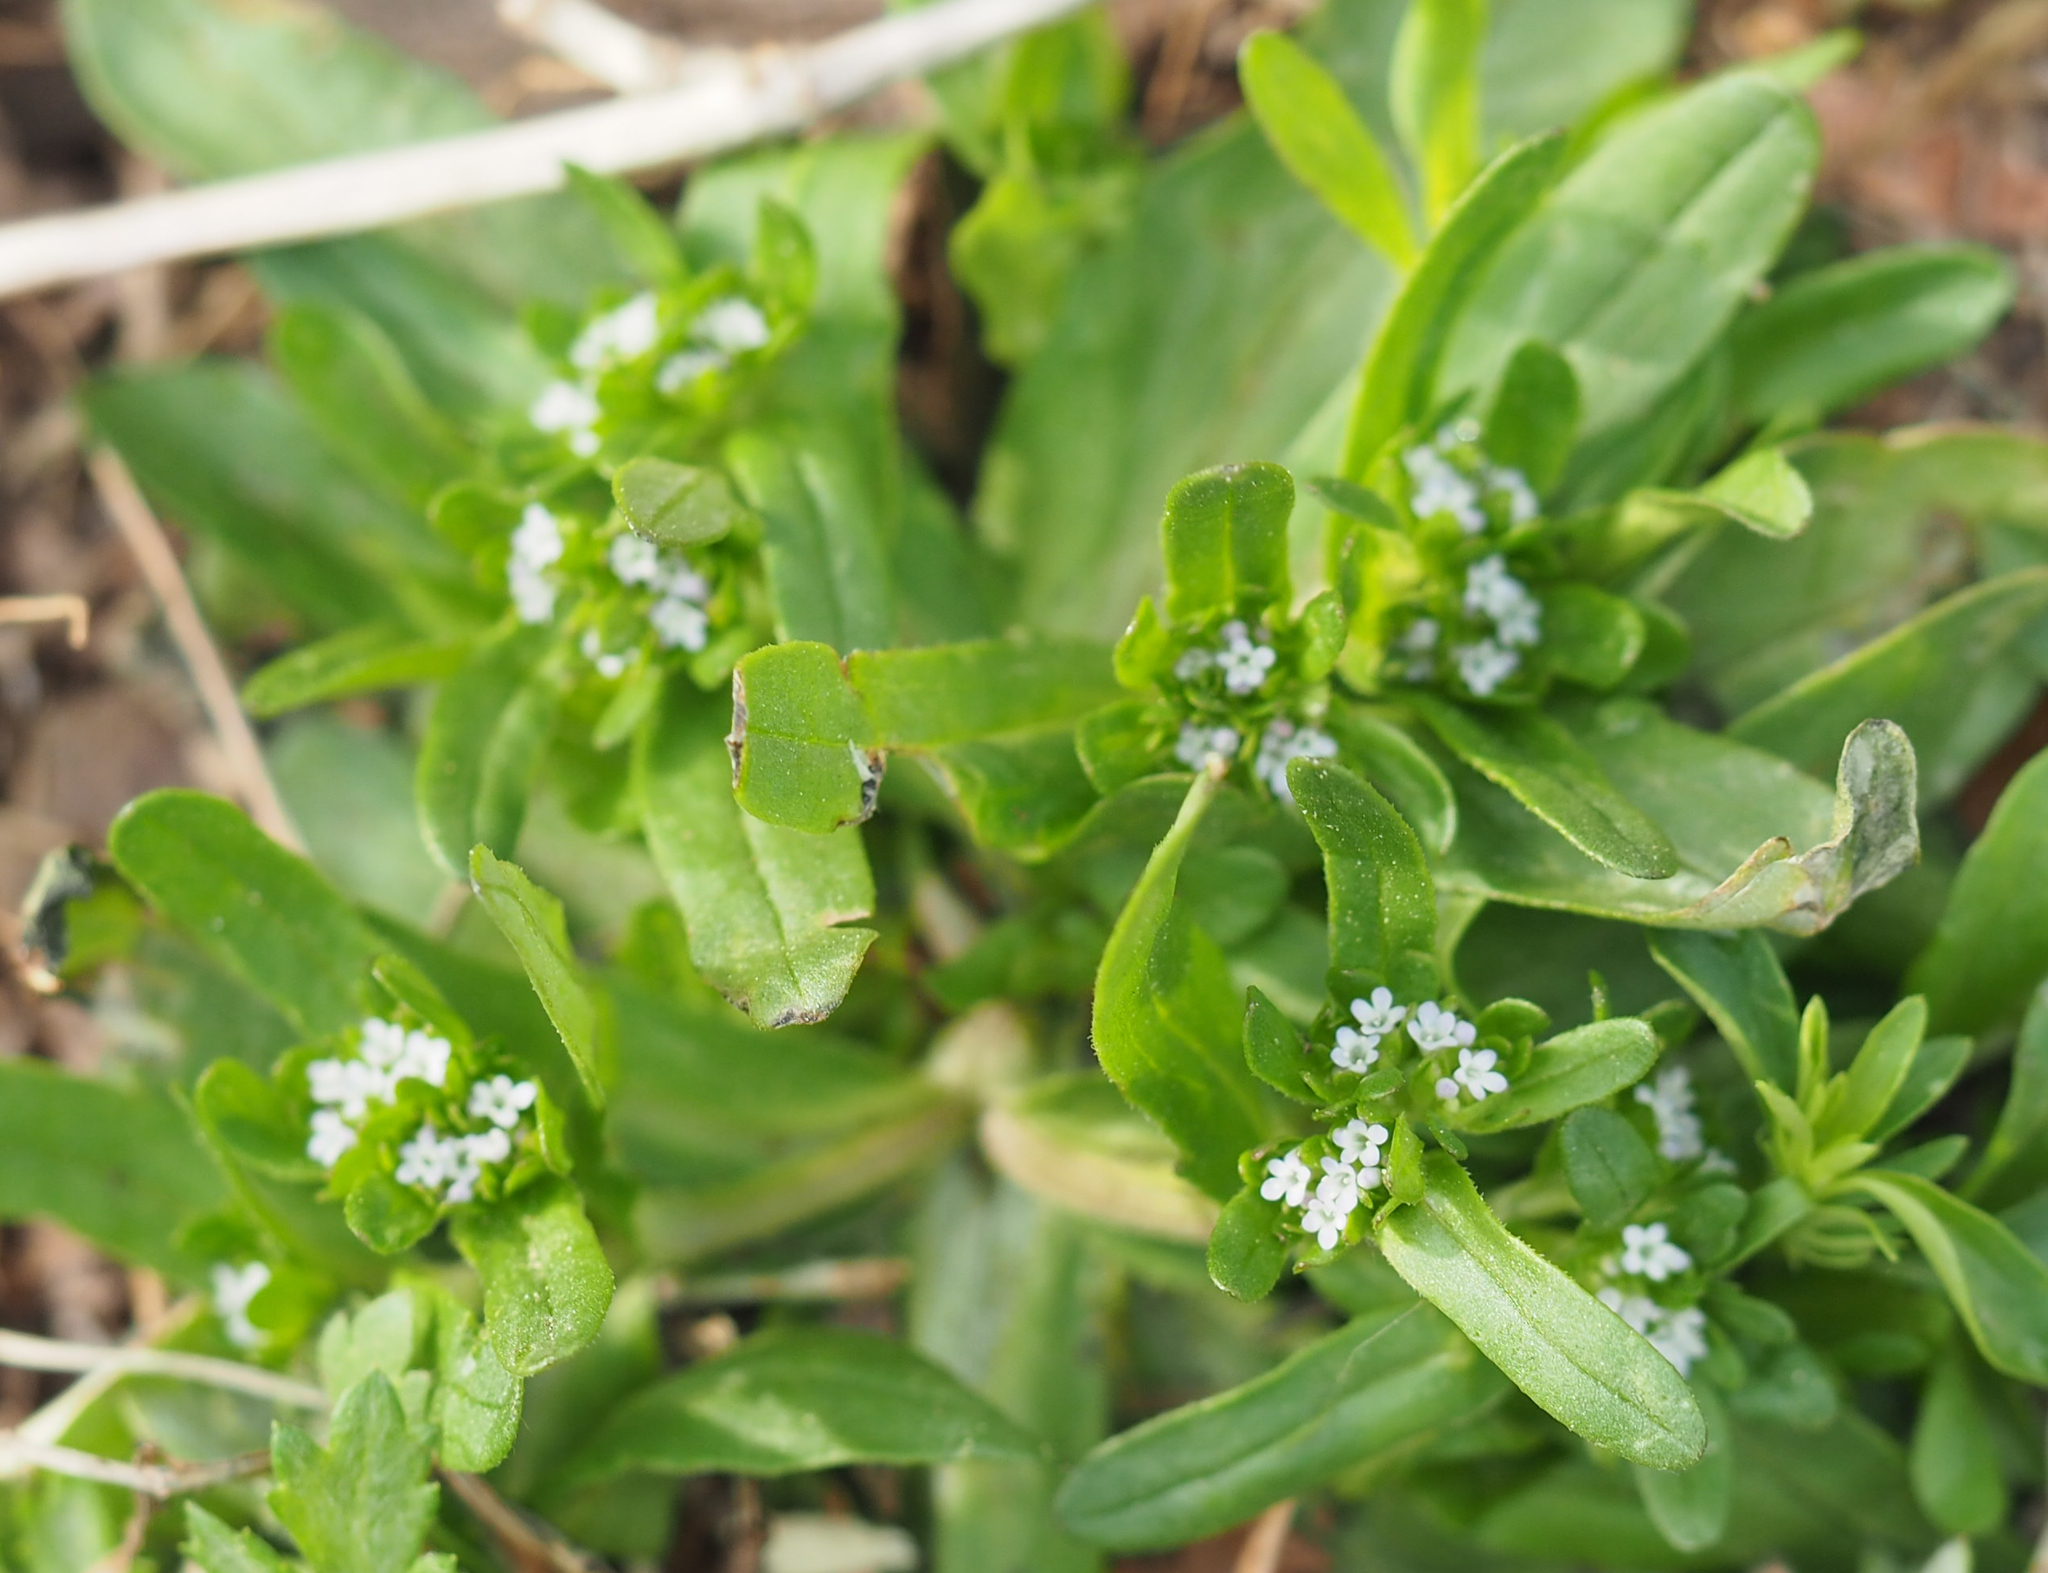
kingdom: Plantae
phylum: Tracheophyta
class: Magnoliopsida
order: Dipsacales
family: Caprifoliaceae
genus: Valerianella
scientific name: Valerianella locusta
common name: Common cornsalad
